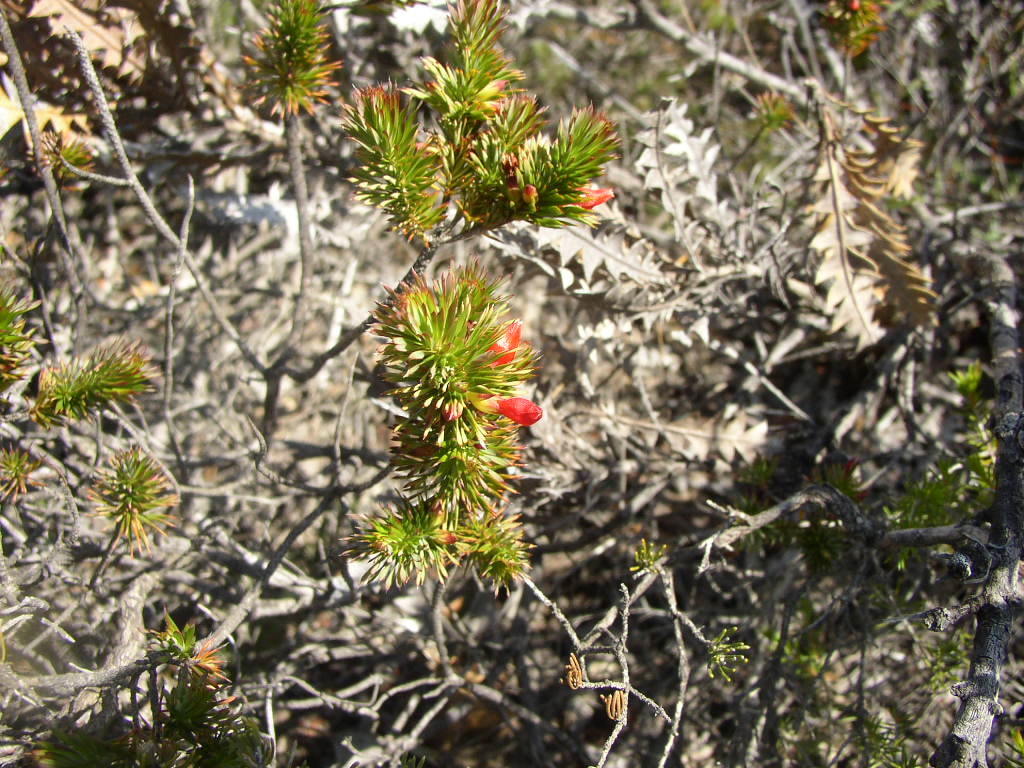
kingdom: Plantae
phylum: Tracheophyta
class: Magnoliopsida
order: Ericales
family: Ericaceae
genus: Styphelia
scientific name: Styphelia tortifolia
